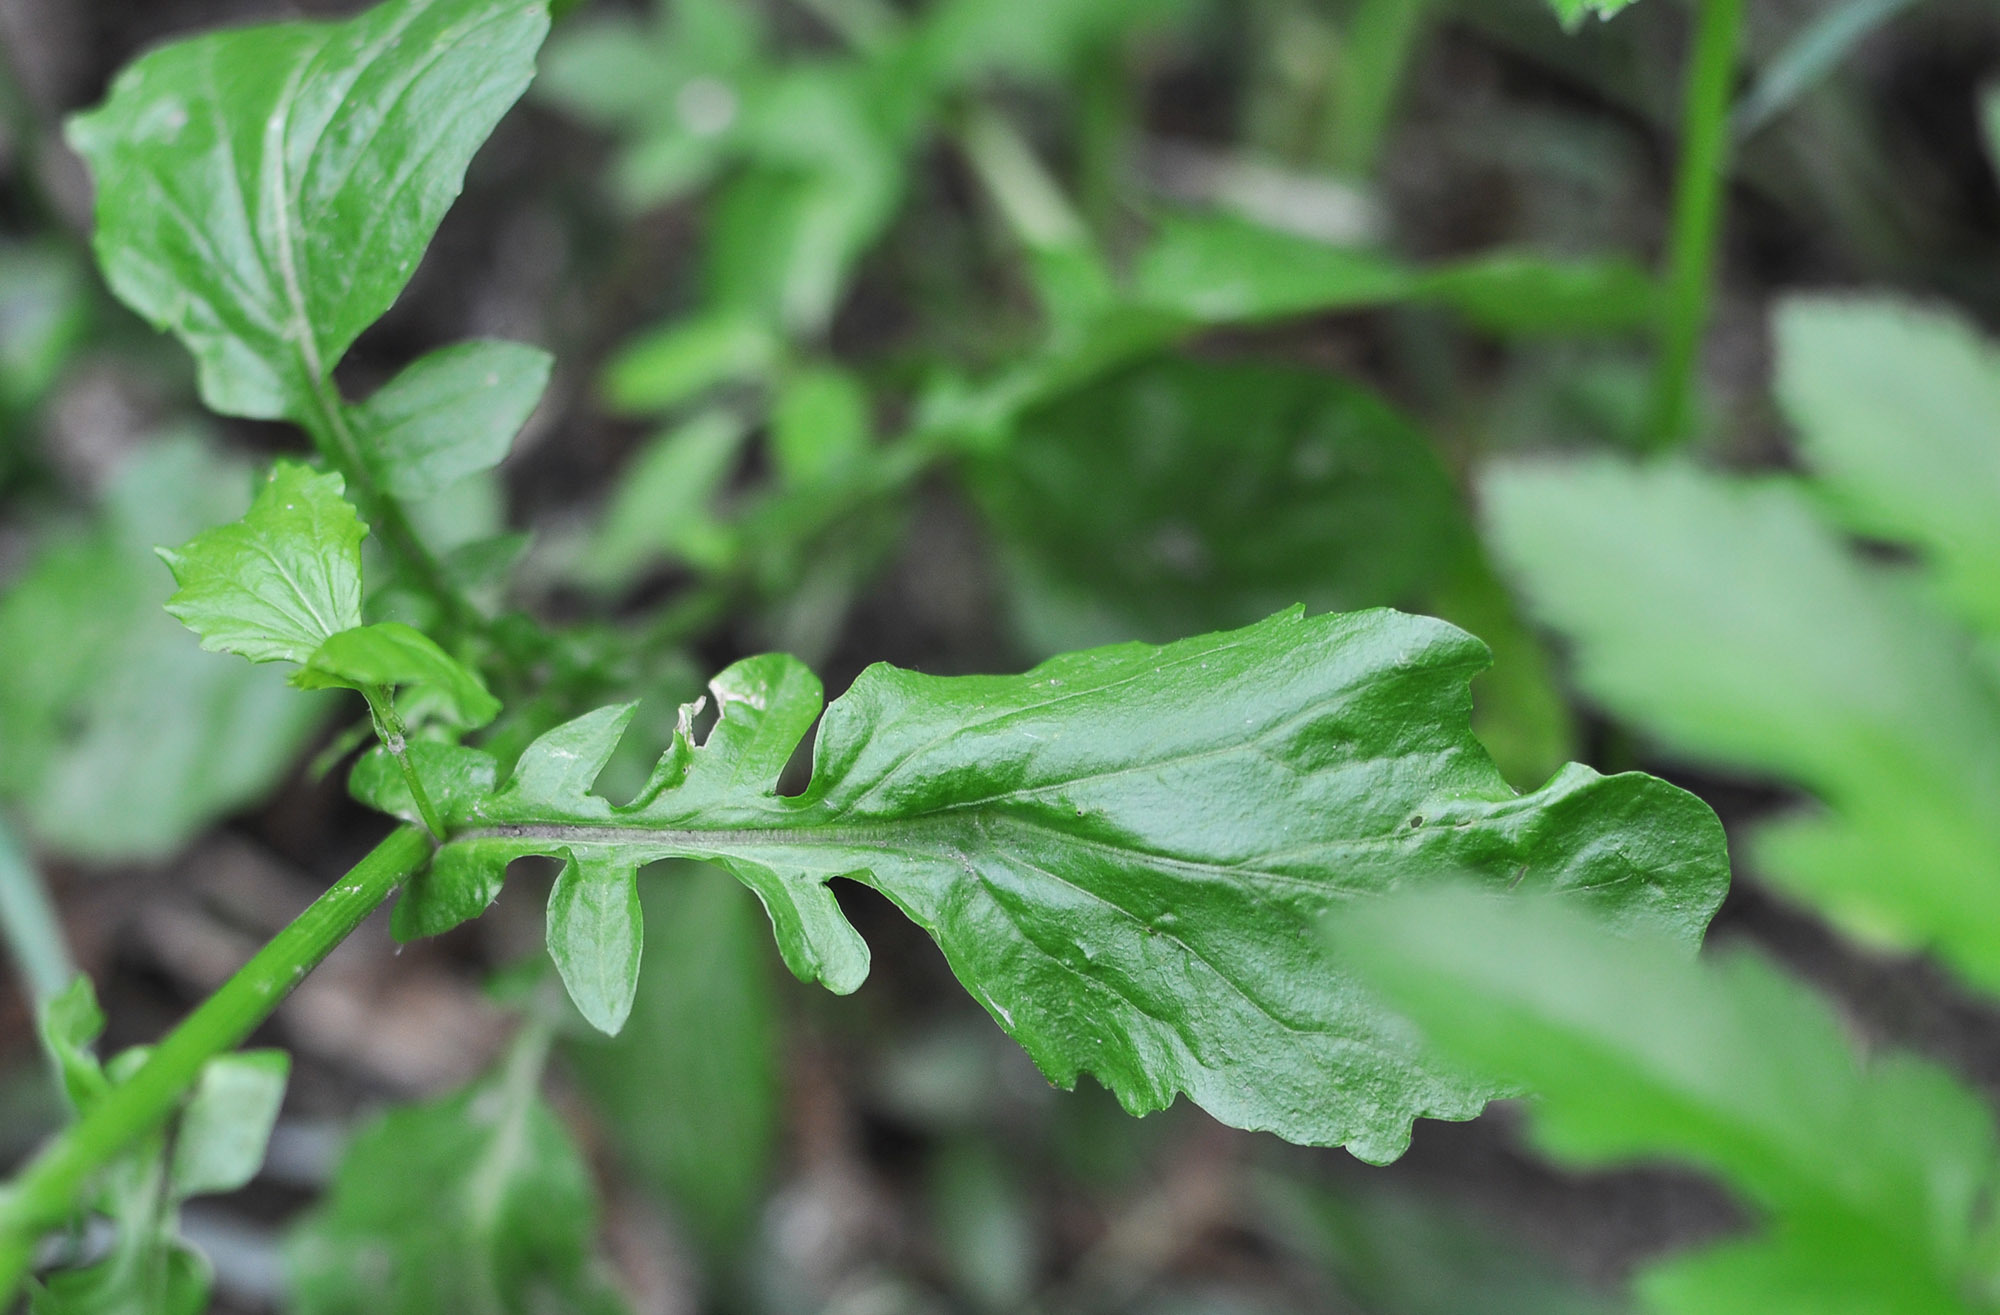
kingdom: Plantae
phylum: Tracheophyta
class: Magnoliopsida
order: Brassicales
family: Brassicaceae
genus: Barbarea
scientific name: Barbarea orthoceras
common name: American wintercress
